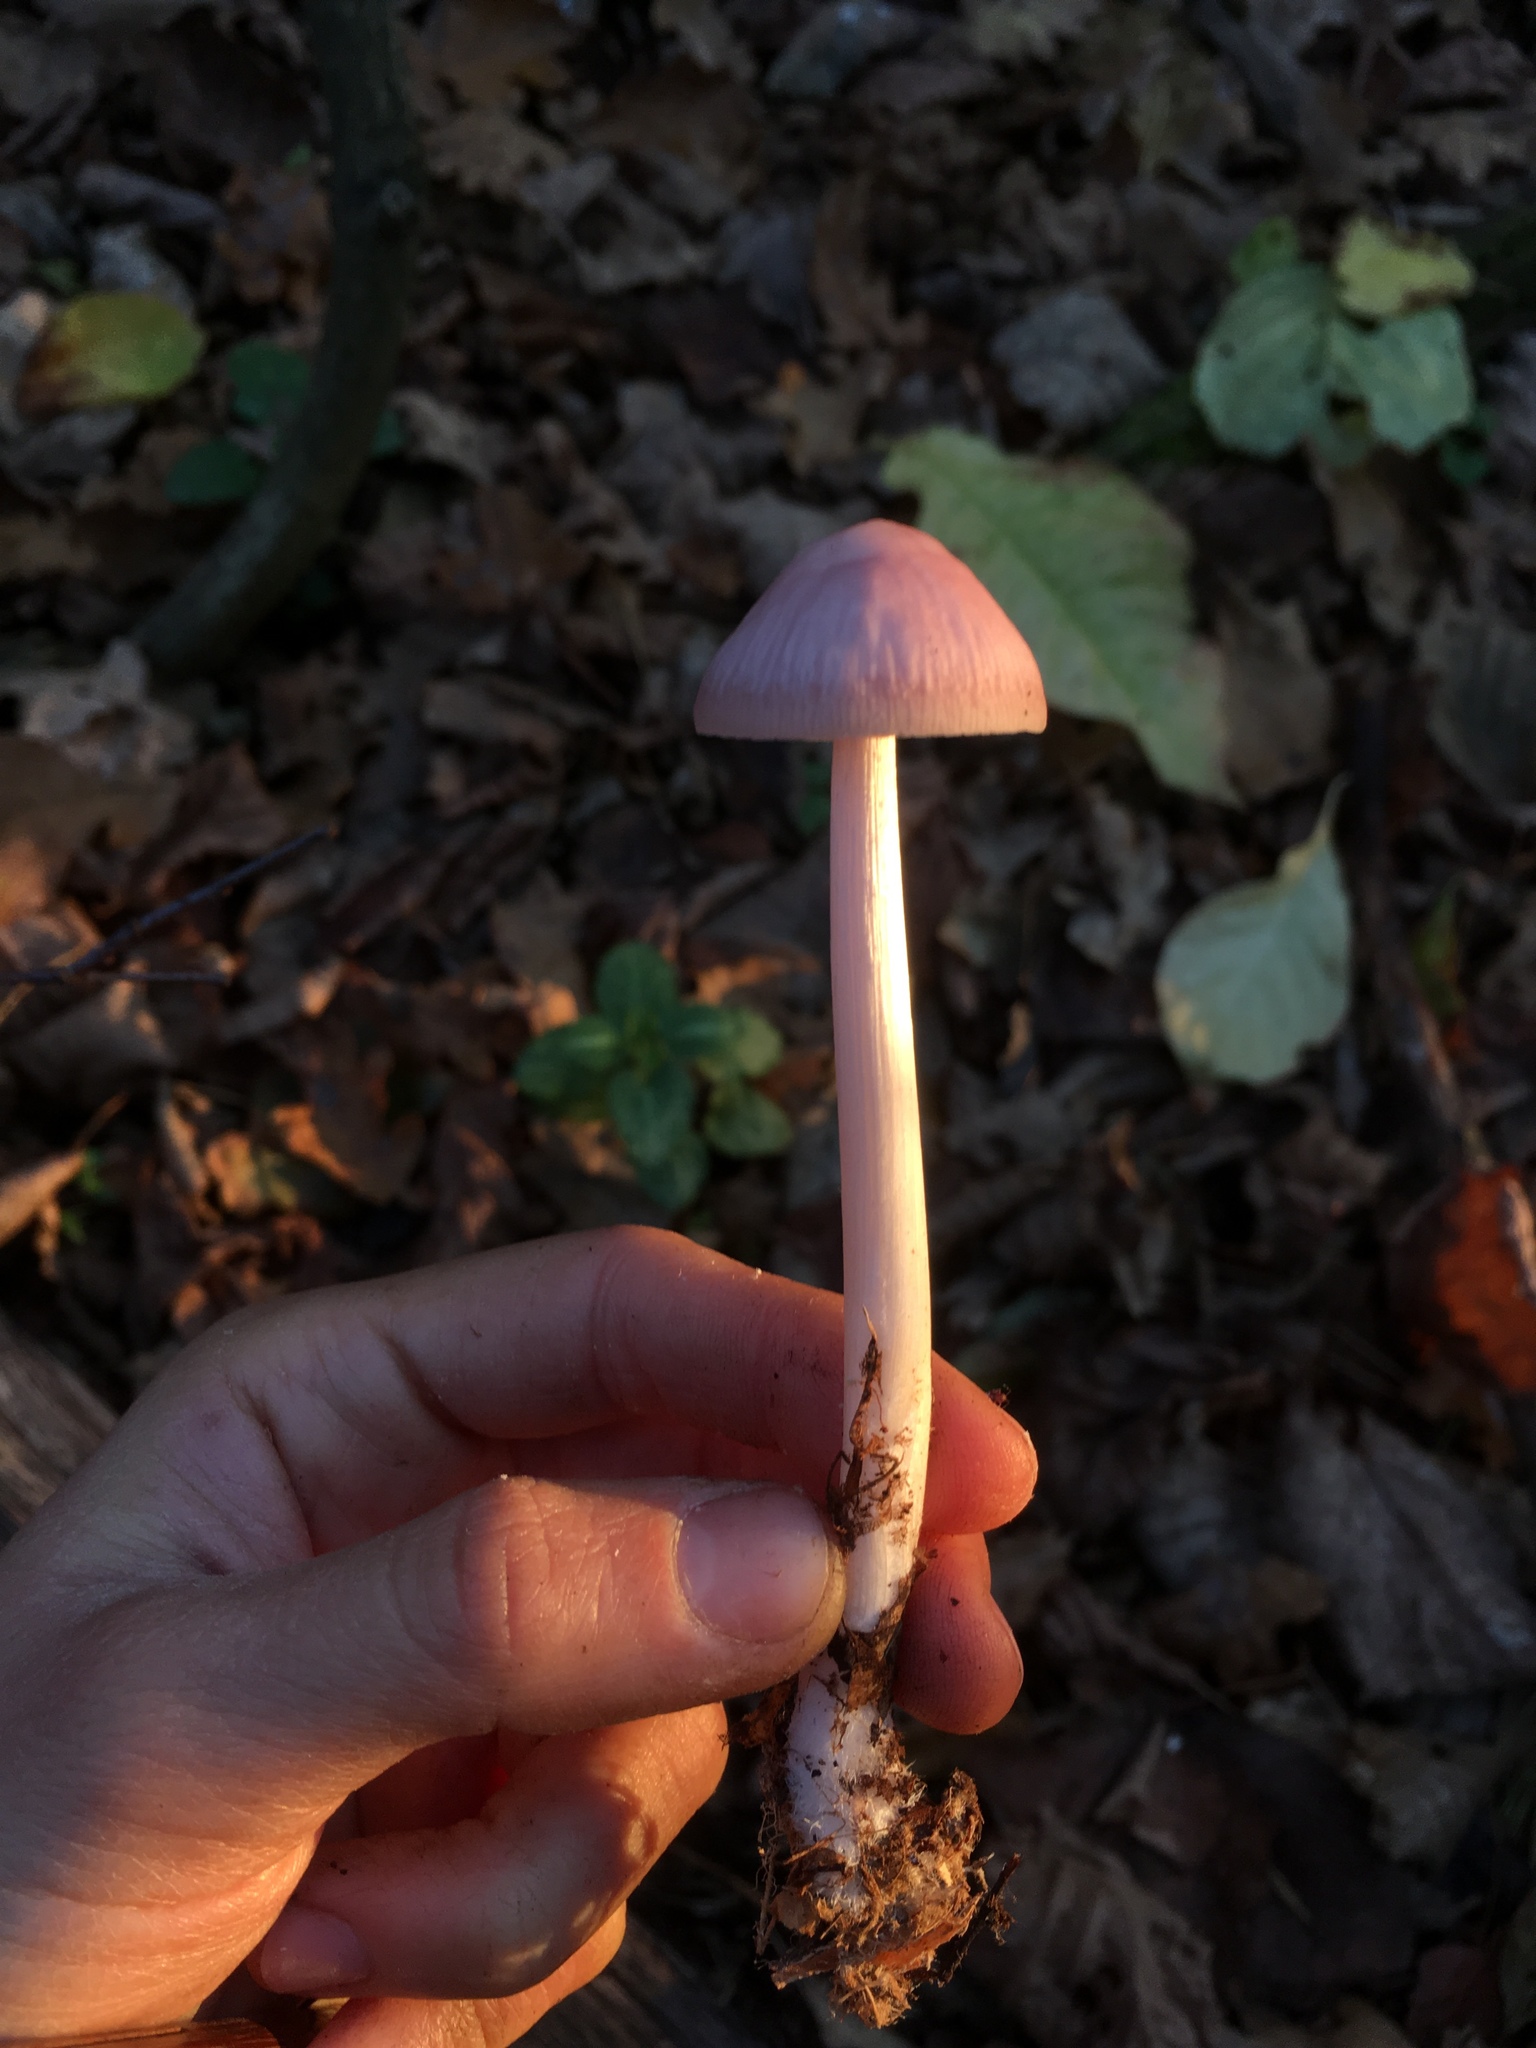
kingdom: Fungi
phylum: Basidiomycota
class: Agaricomycetes
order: Agaricales
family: Mycenaceae
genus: Mycena
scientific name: Mycena rosea
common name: Rosy bonnet
